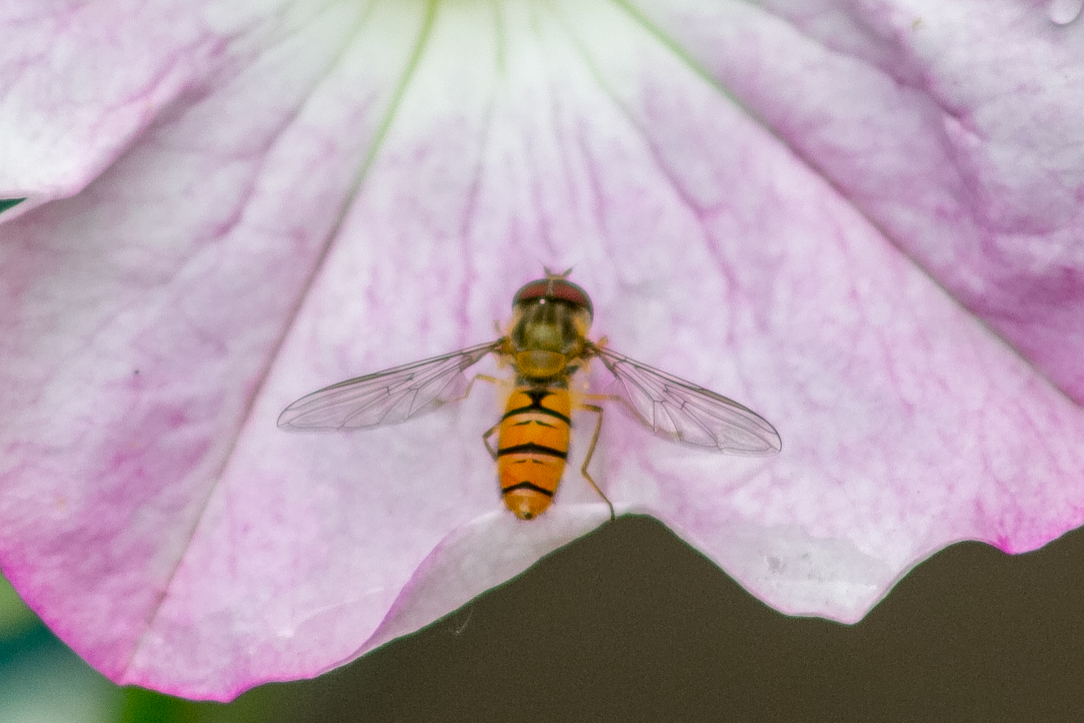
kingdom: Animalia
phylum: Arthropoda
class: Insecta
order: Diptera
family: Syrphidae
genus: Episyrphus
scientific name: Episyrphus balteatus
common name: Marmalade hoverfly
